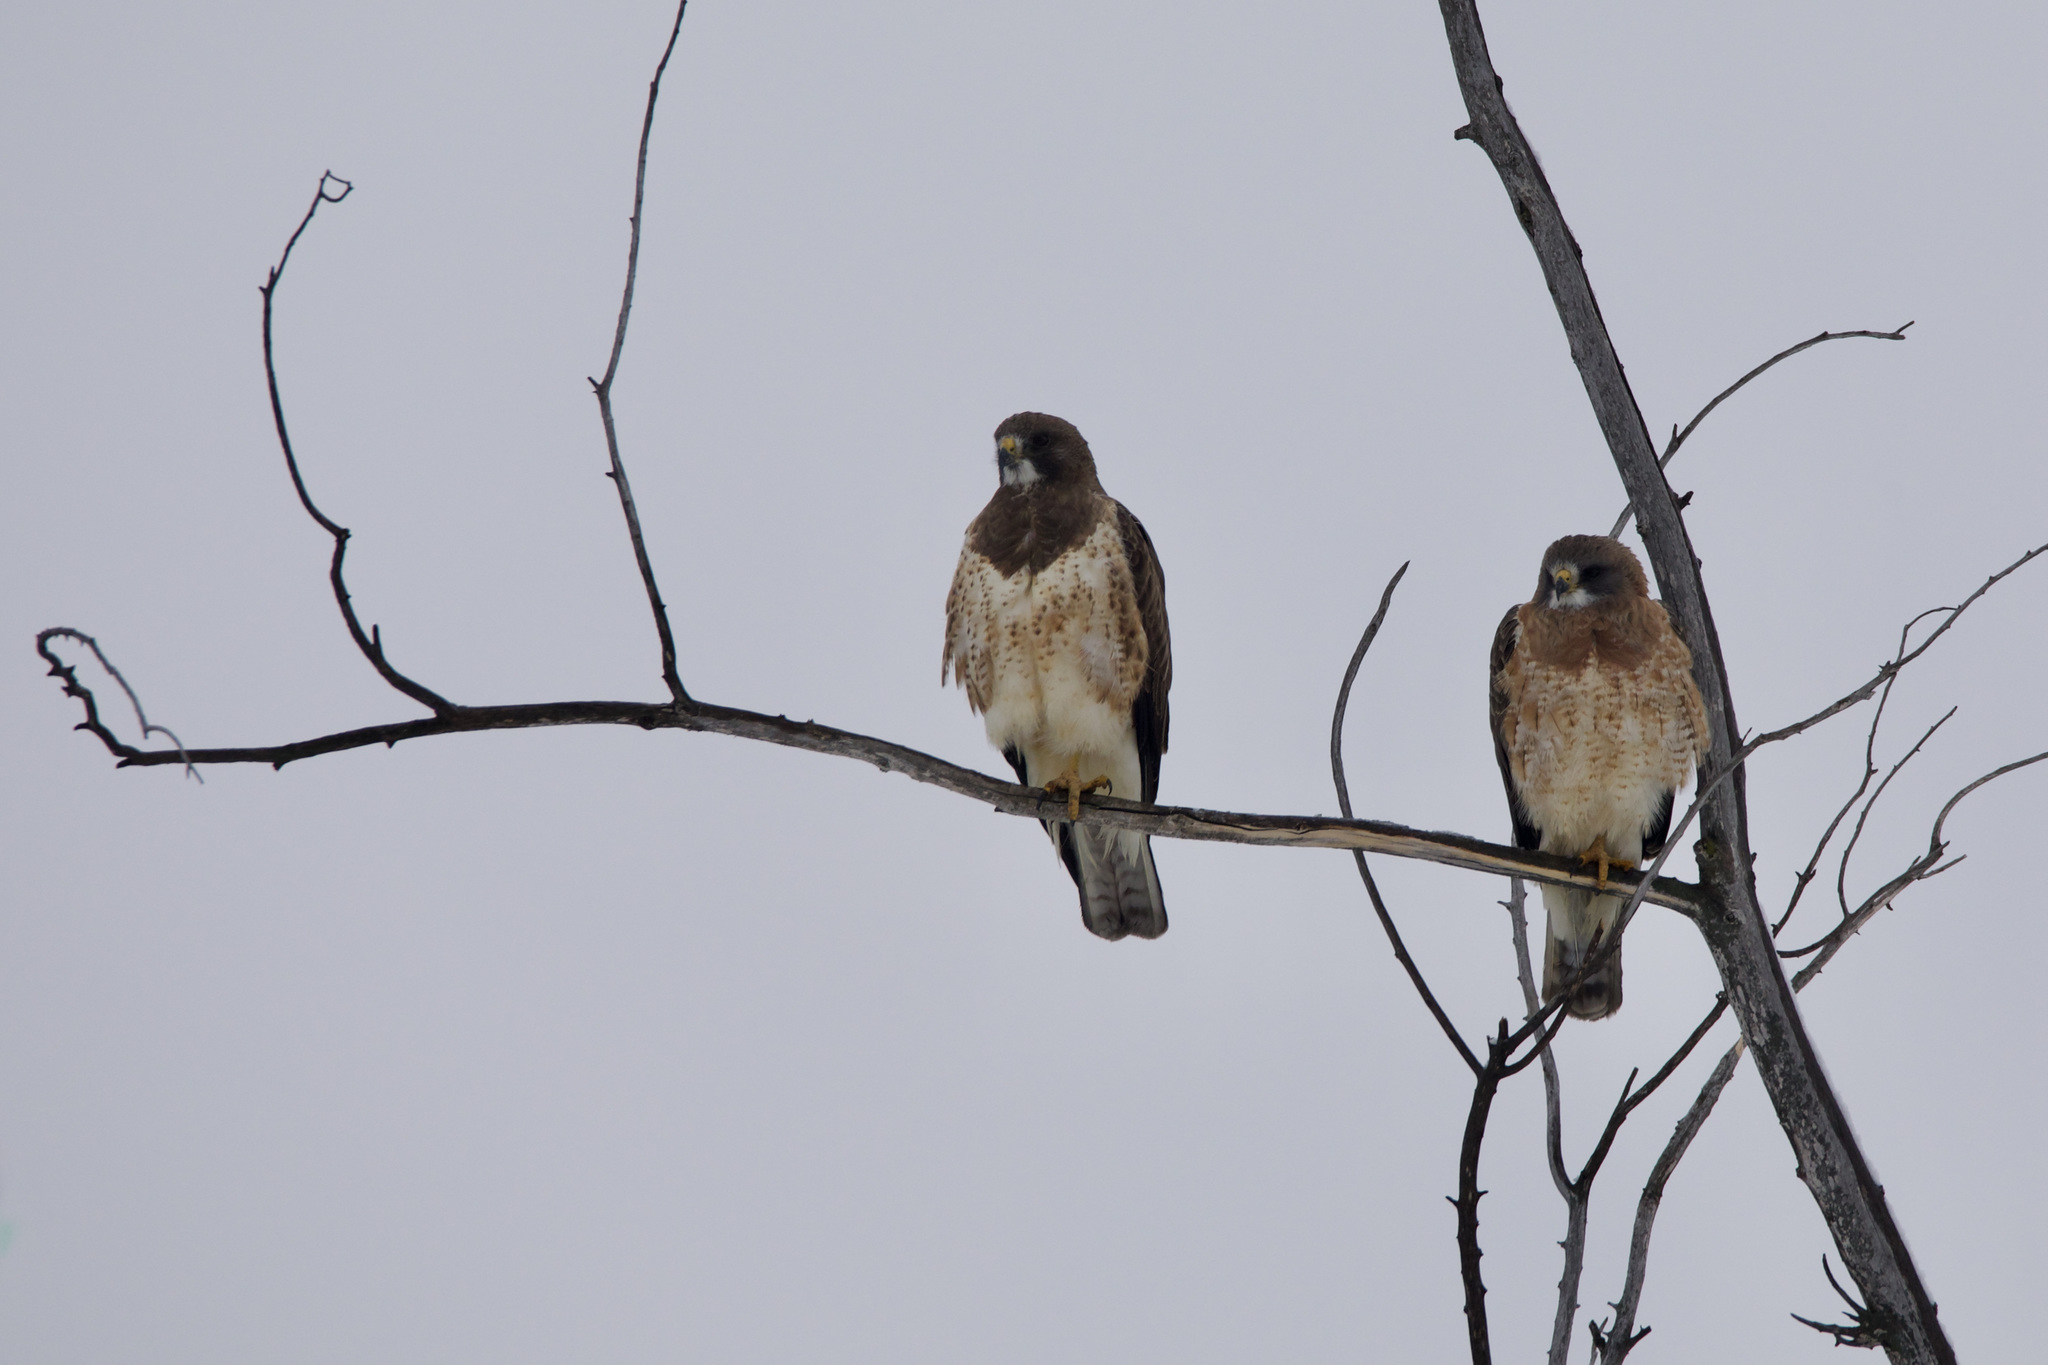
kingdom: Animalia
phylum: Chordata
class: Aves
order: Accipitriformes
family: Accipitridae
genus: Buteo
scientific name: Buteo swainsoni
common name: Swainson's hawk
